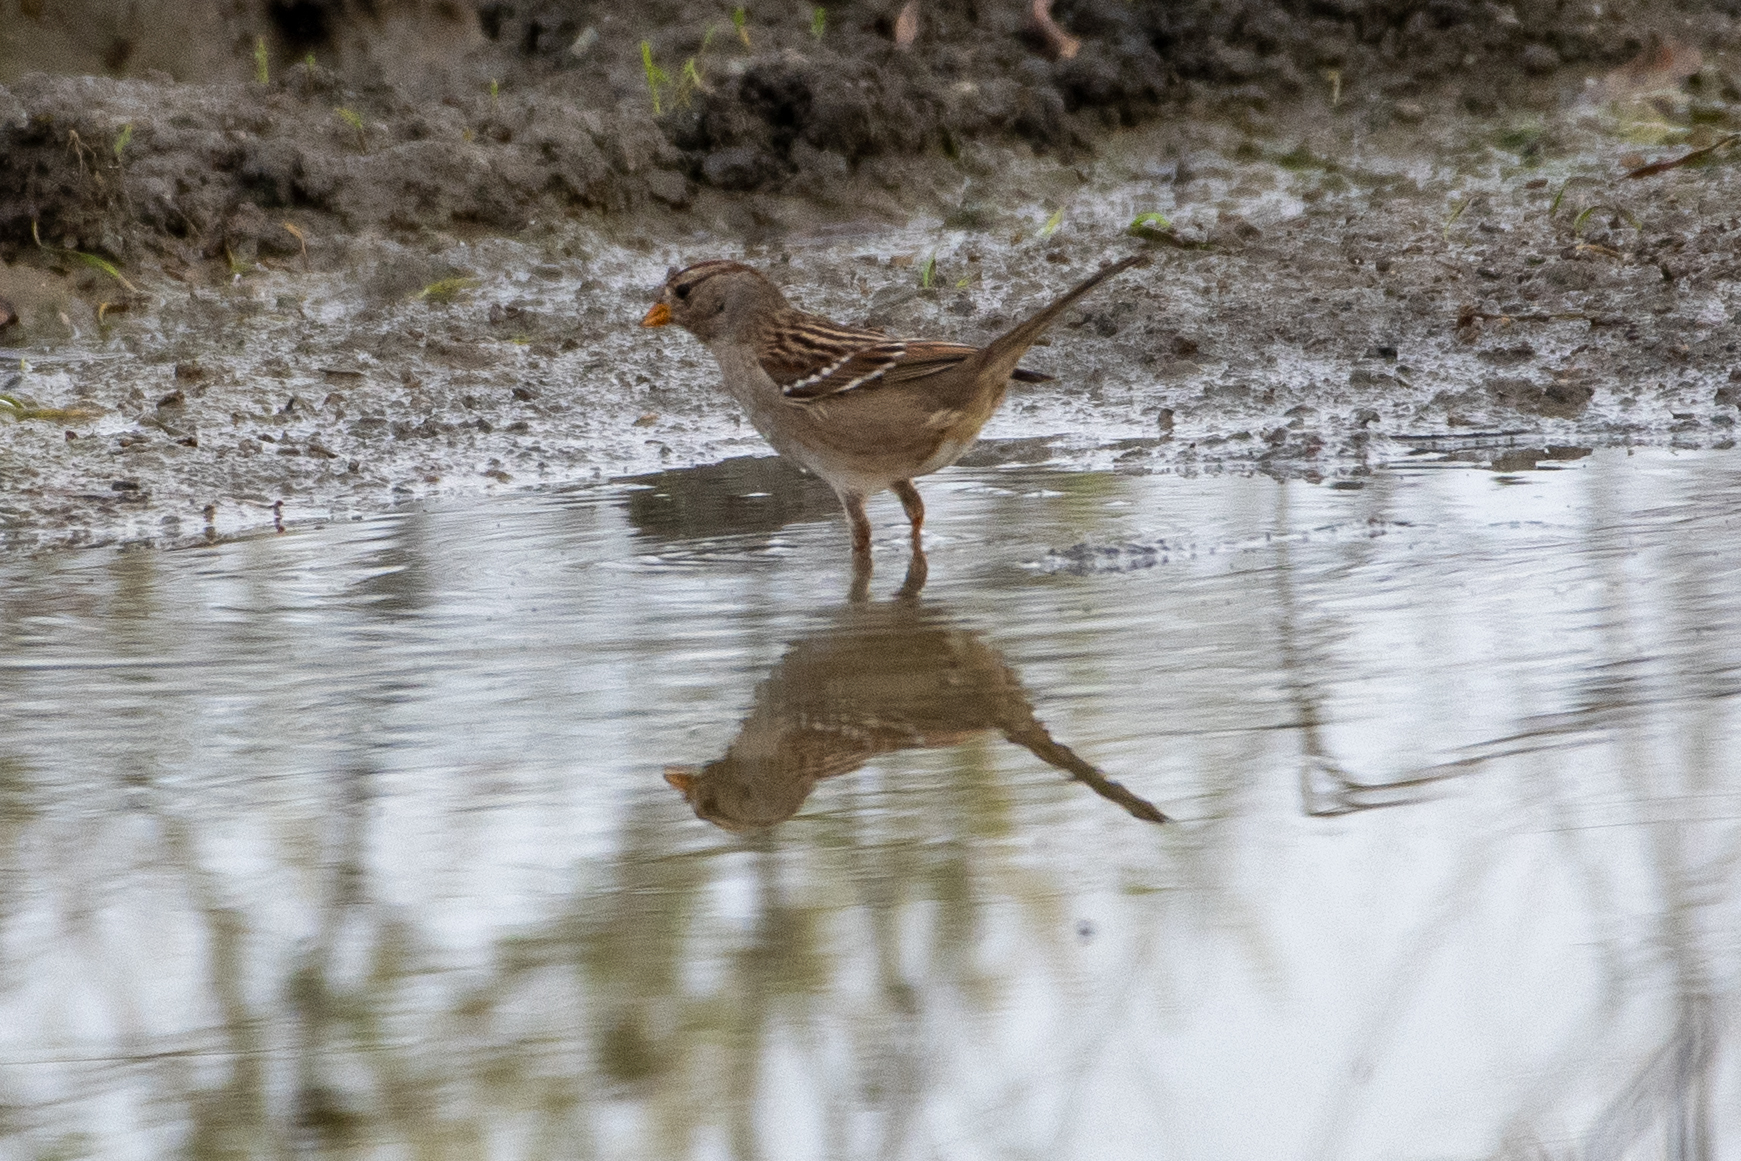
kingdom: Animalia
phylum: Chordata
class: Aves
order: Passeriformes
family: Passerellidae
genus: Zonotrichia
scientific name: Zonotrichia leucophrys
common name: White-crowned sparrow
